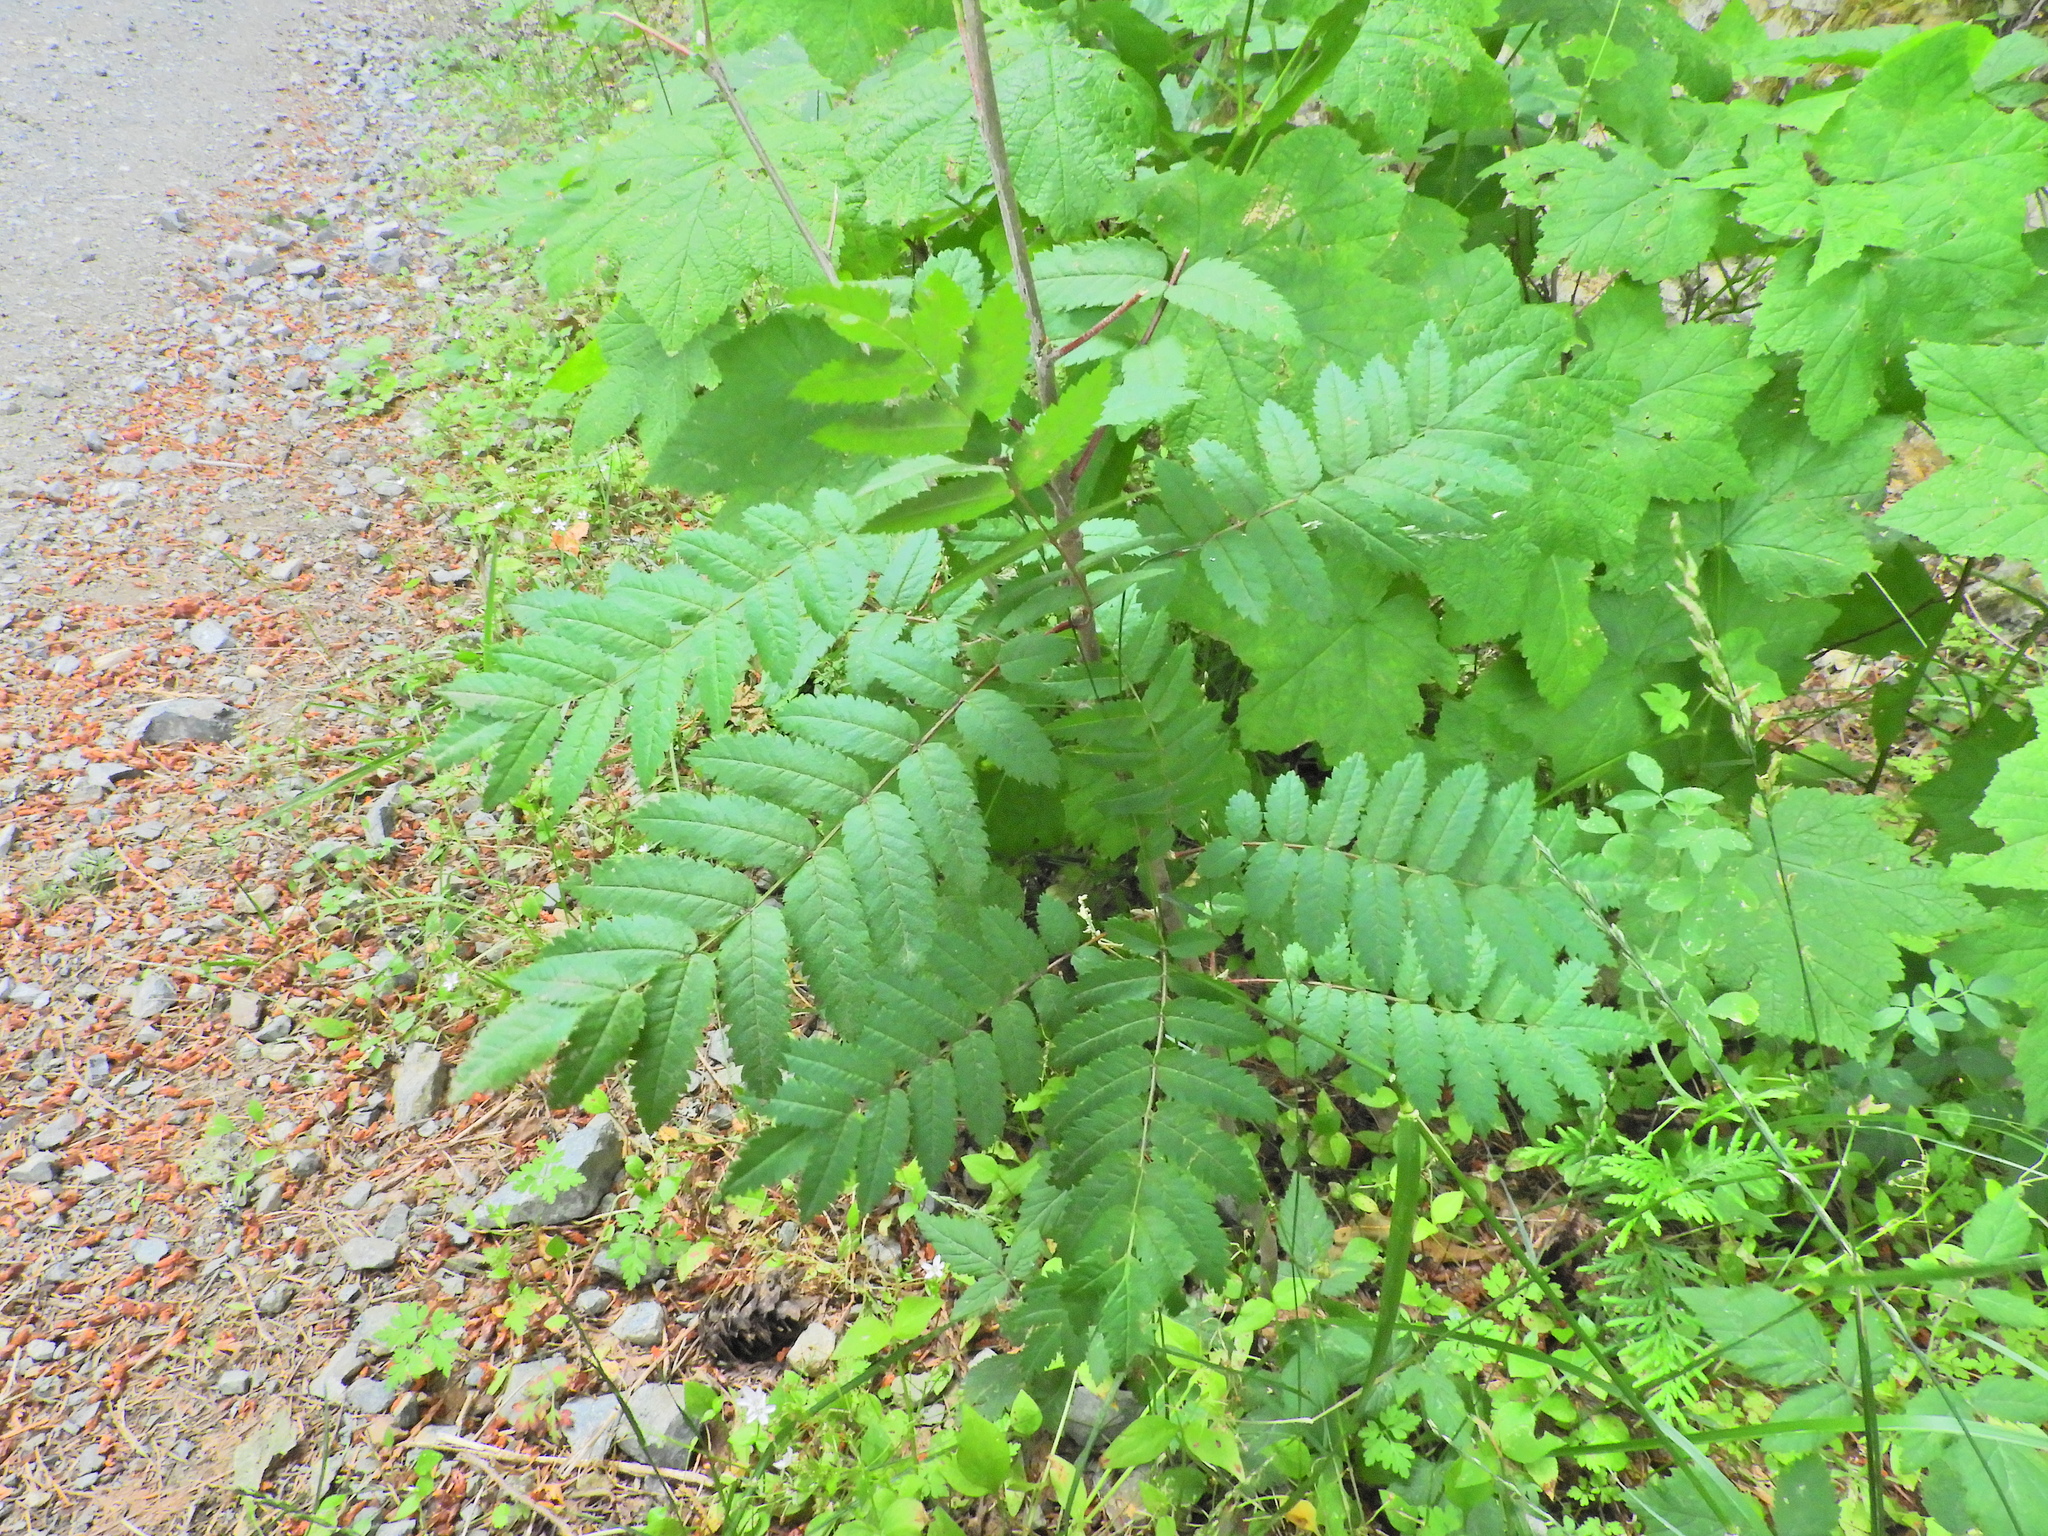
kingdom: Plantae
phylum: Tracheophyta
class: Magnoliopsida
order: Rosales
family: Rosaceae
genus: Sorbus
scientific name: Sorbus aucuparia
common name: Rowan
